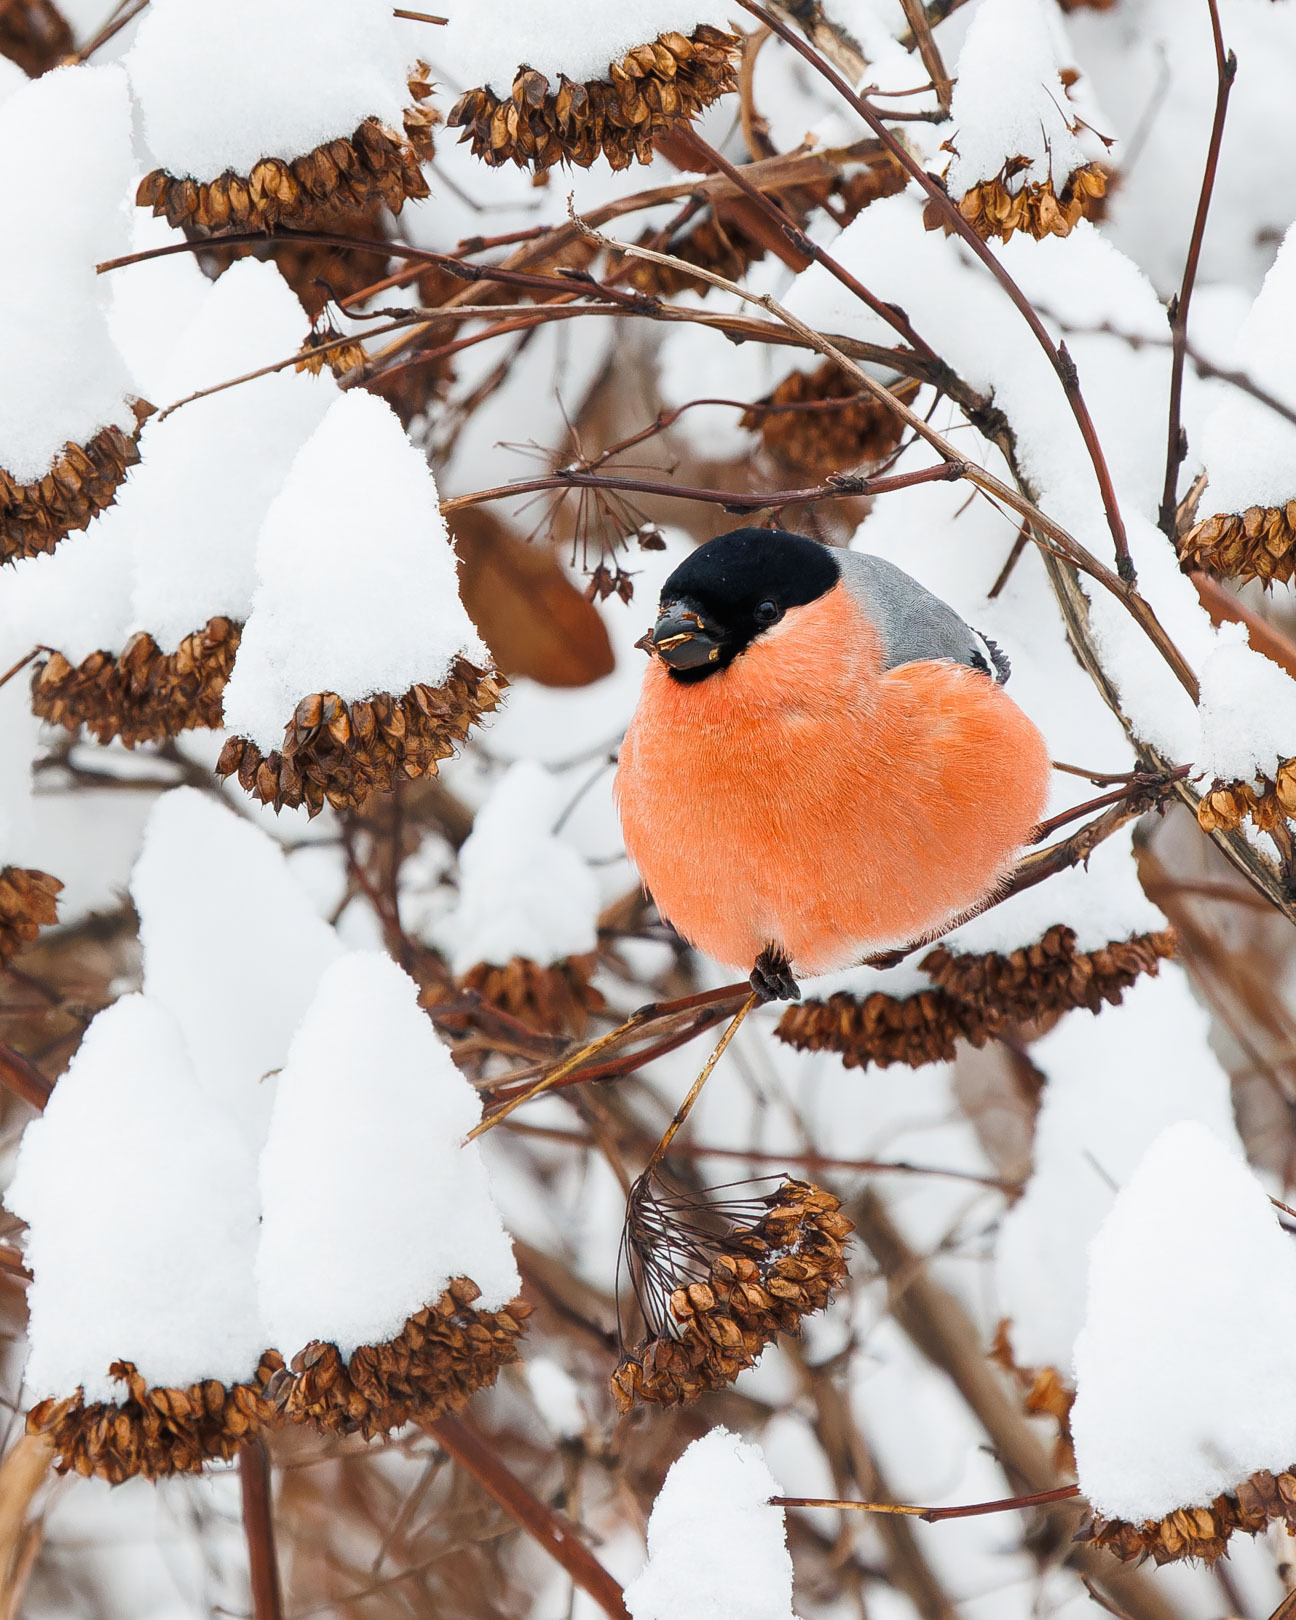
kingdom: Animalia
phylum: Chordata
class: Aves
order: Passeriformes
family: Fringillidae
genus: Pyrrhula
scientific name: Pyrrhula pyrrhula
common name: Eurasian bullfinch
